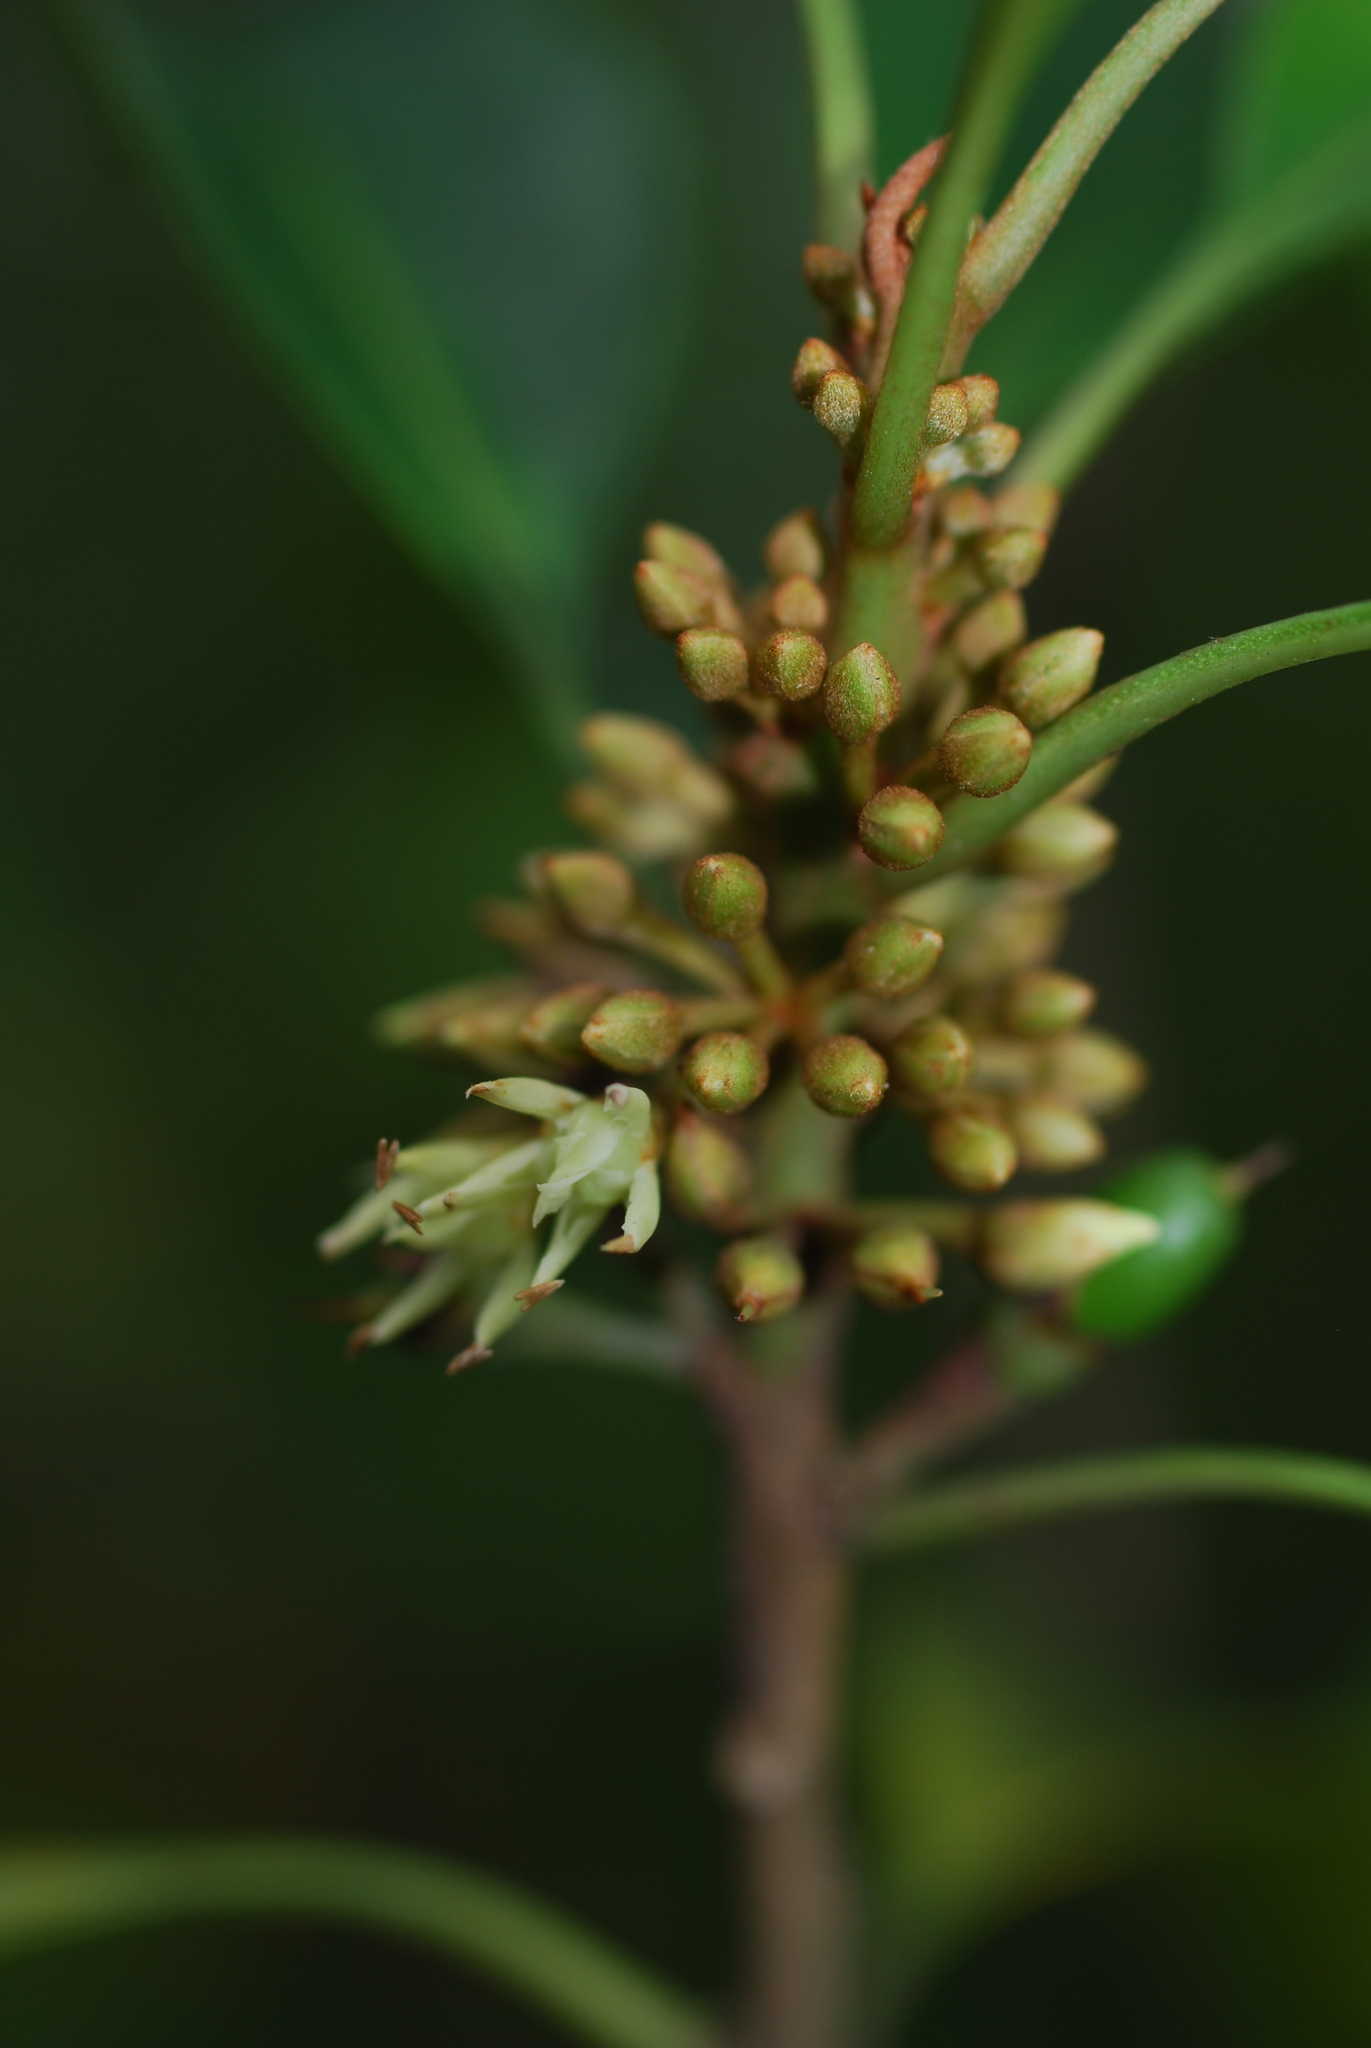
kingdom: Plantae
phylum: Tracheophyta
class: Magnoliopsida
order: Ericales
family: Sapotaceae
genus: Sideroxylon
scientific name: Sideroxylon wightianum
